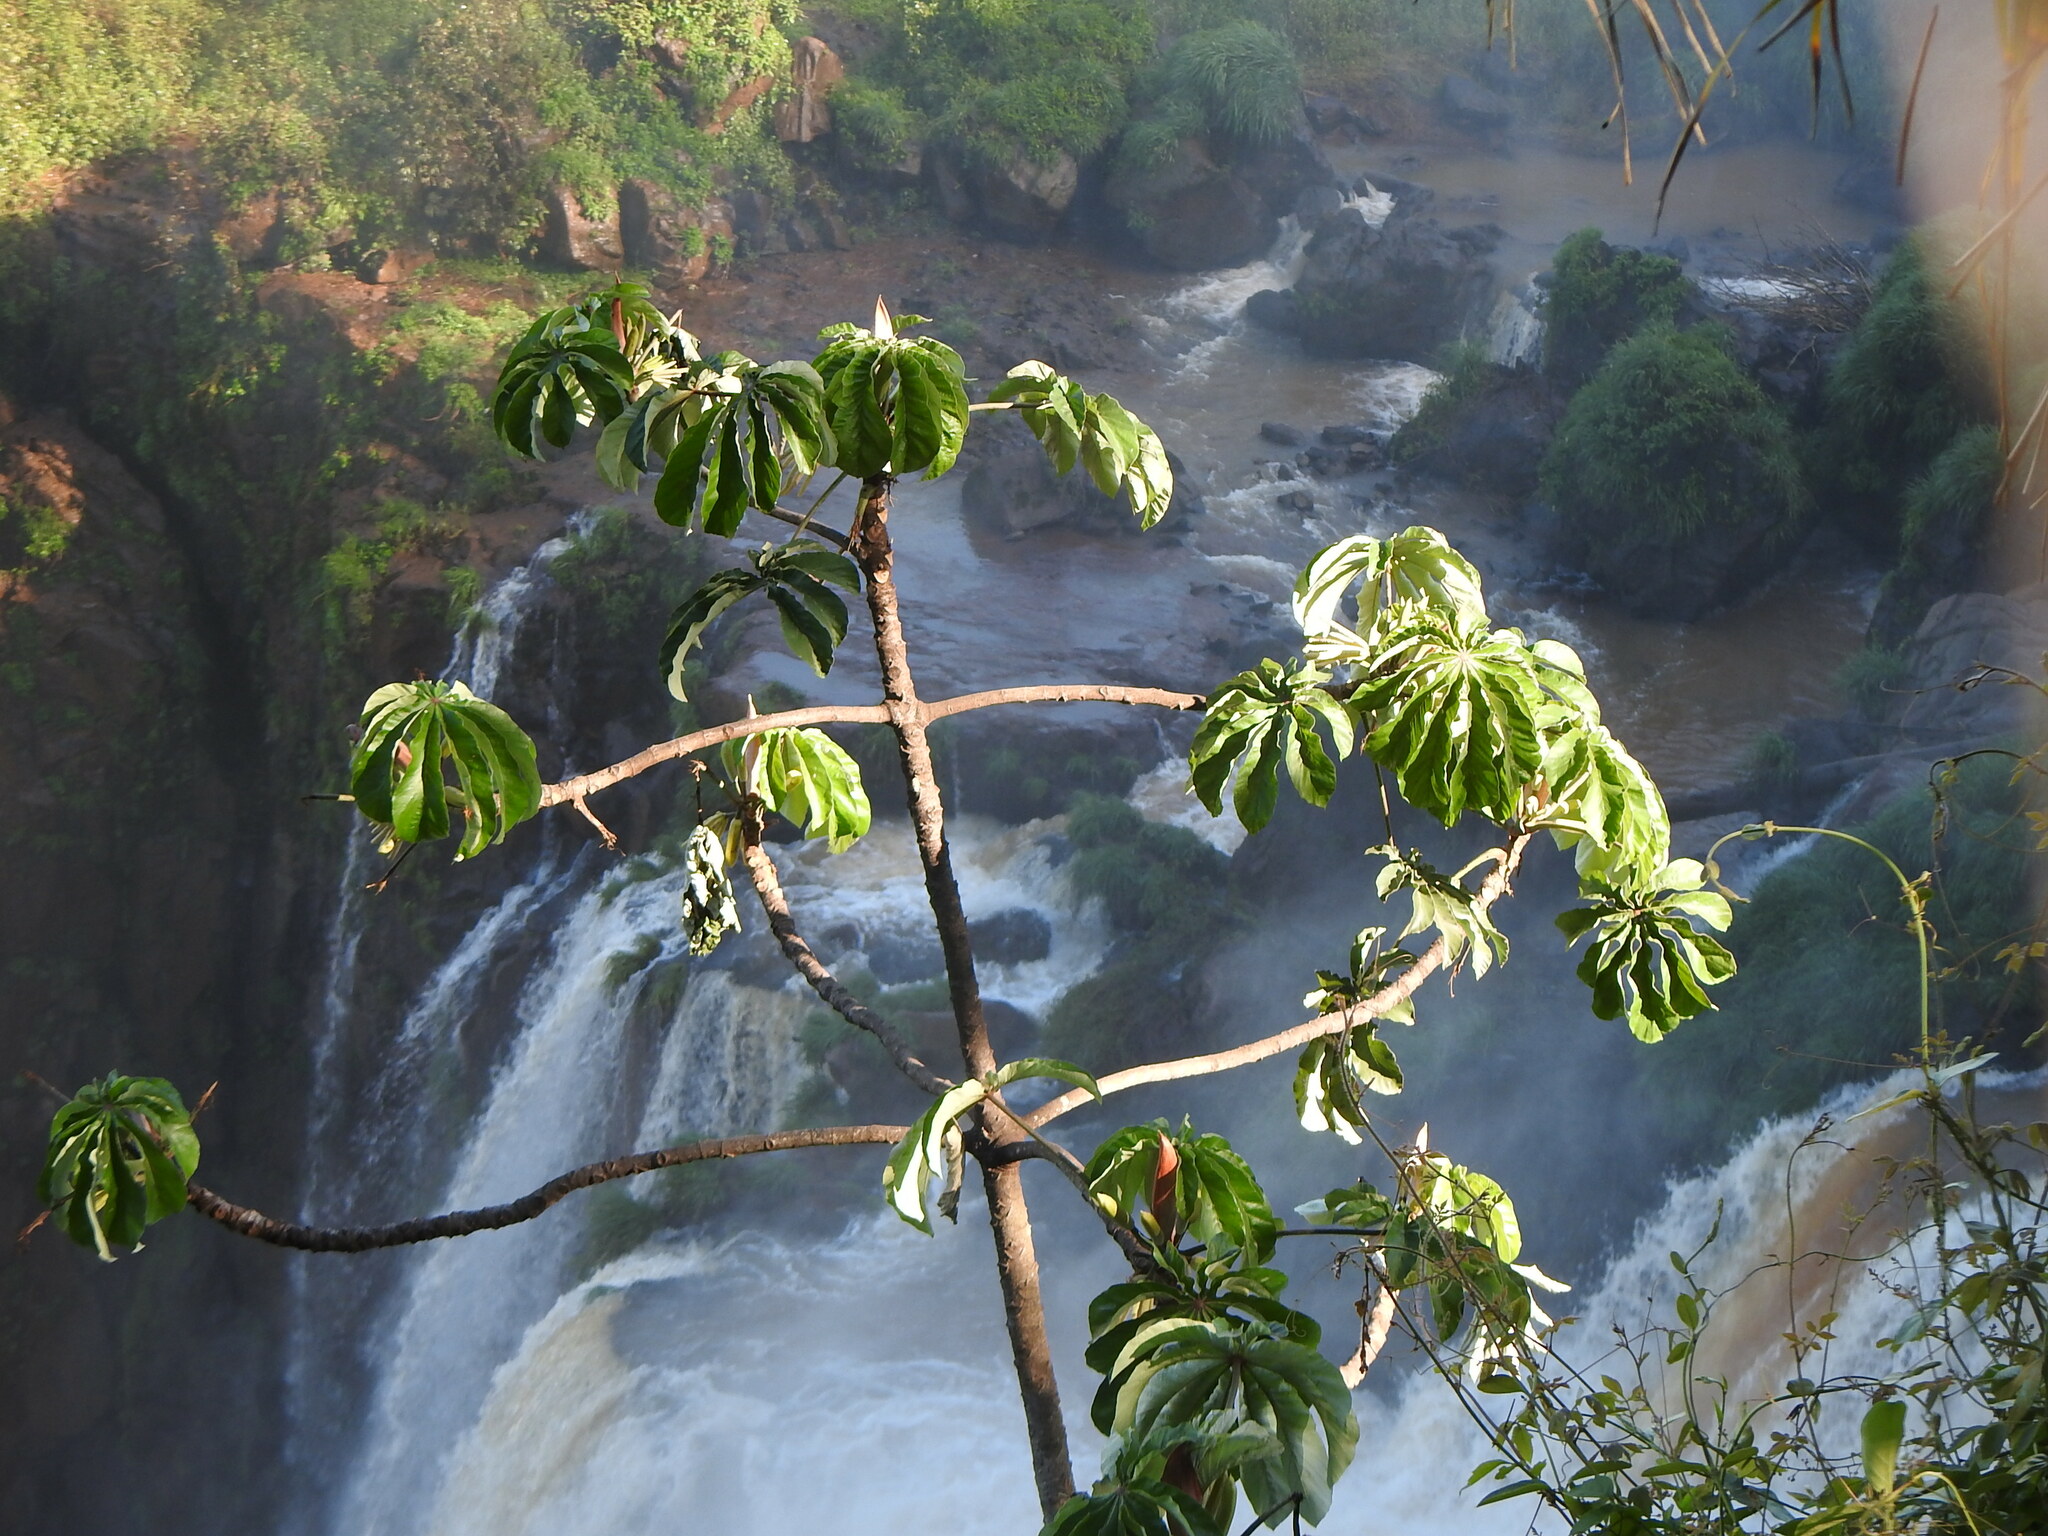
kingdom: Plantae
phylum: Tracheophyta
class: Magnoliopsida
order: Rosales
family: Urticaceae
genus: Cecropia
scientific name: Cecropia pachystachya
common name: Ambay pumpwood
